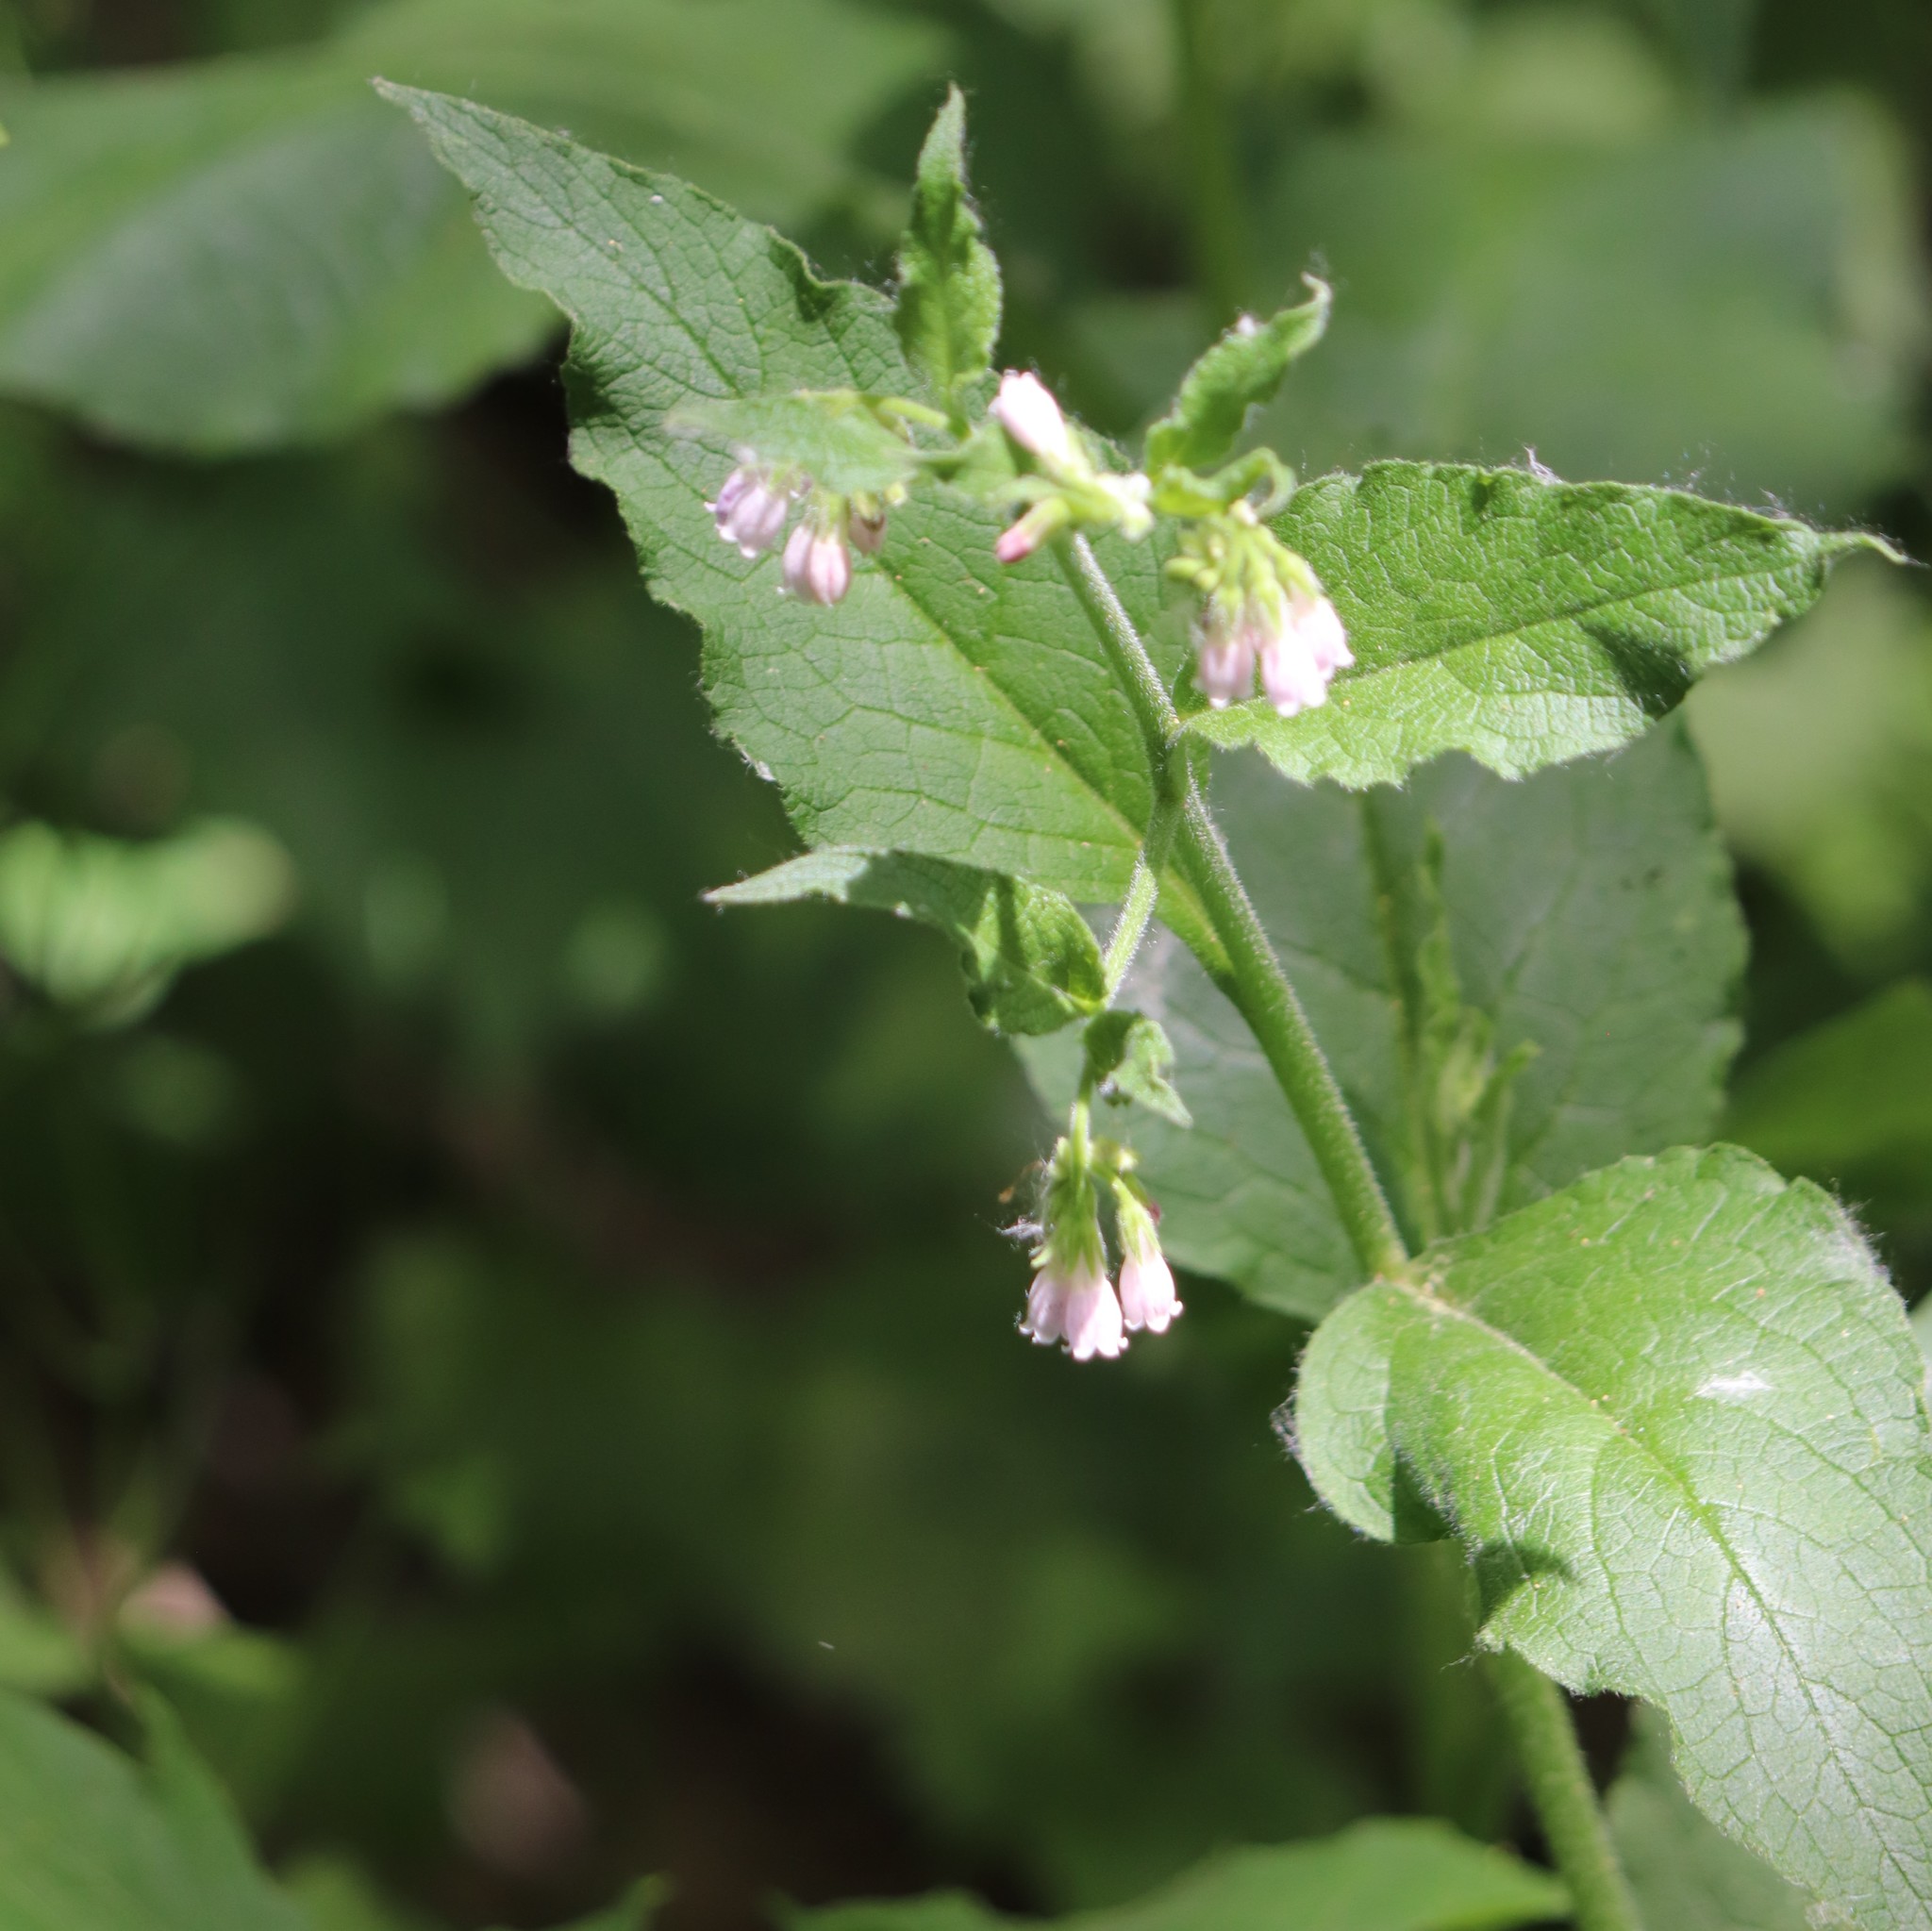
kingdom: Plantae
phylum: Tracheophyta
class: Magnoliopsida
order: Boraginales
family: Boraginaceae
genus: Symphytum
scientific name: Symphytum officinale
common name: Common comfrey
